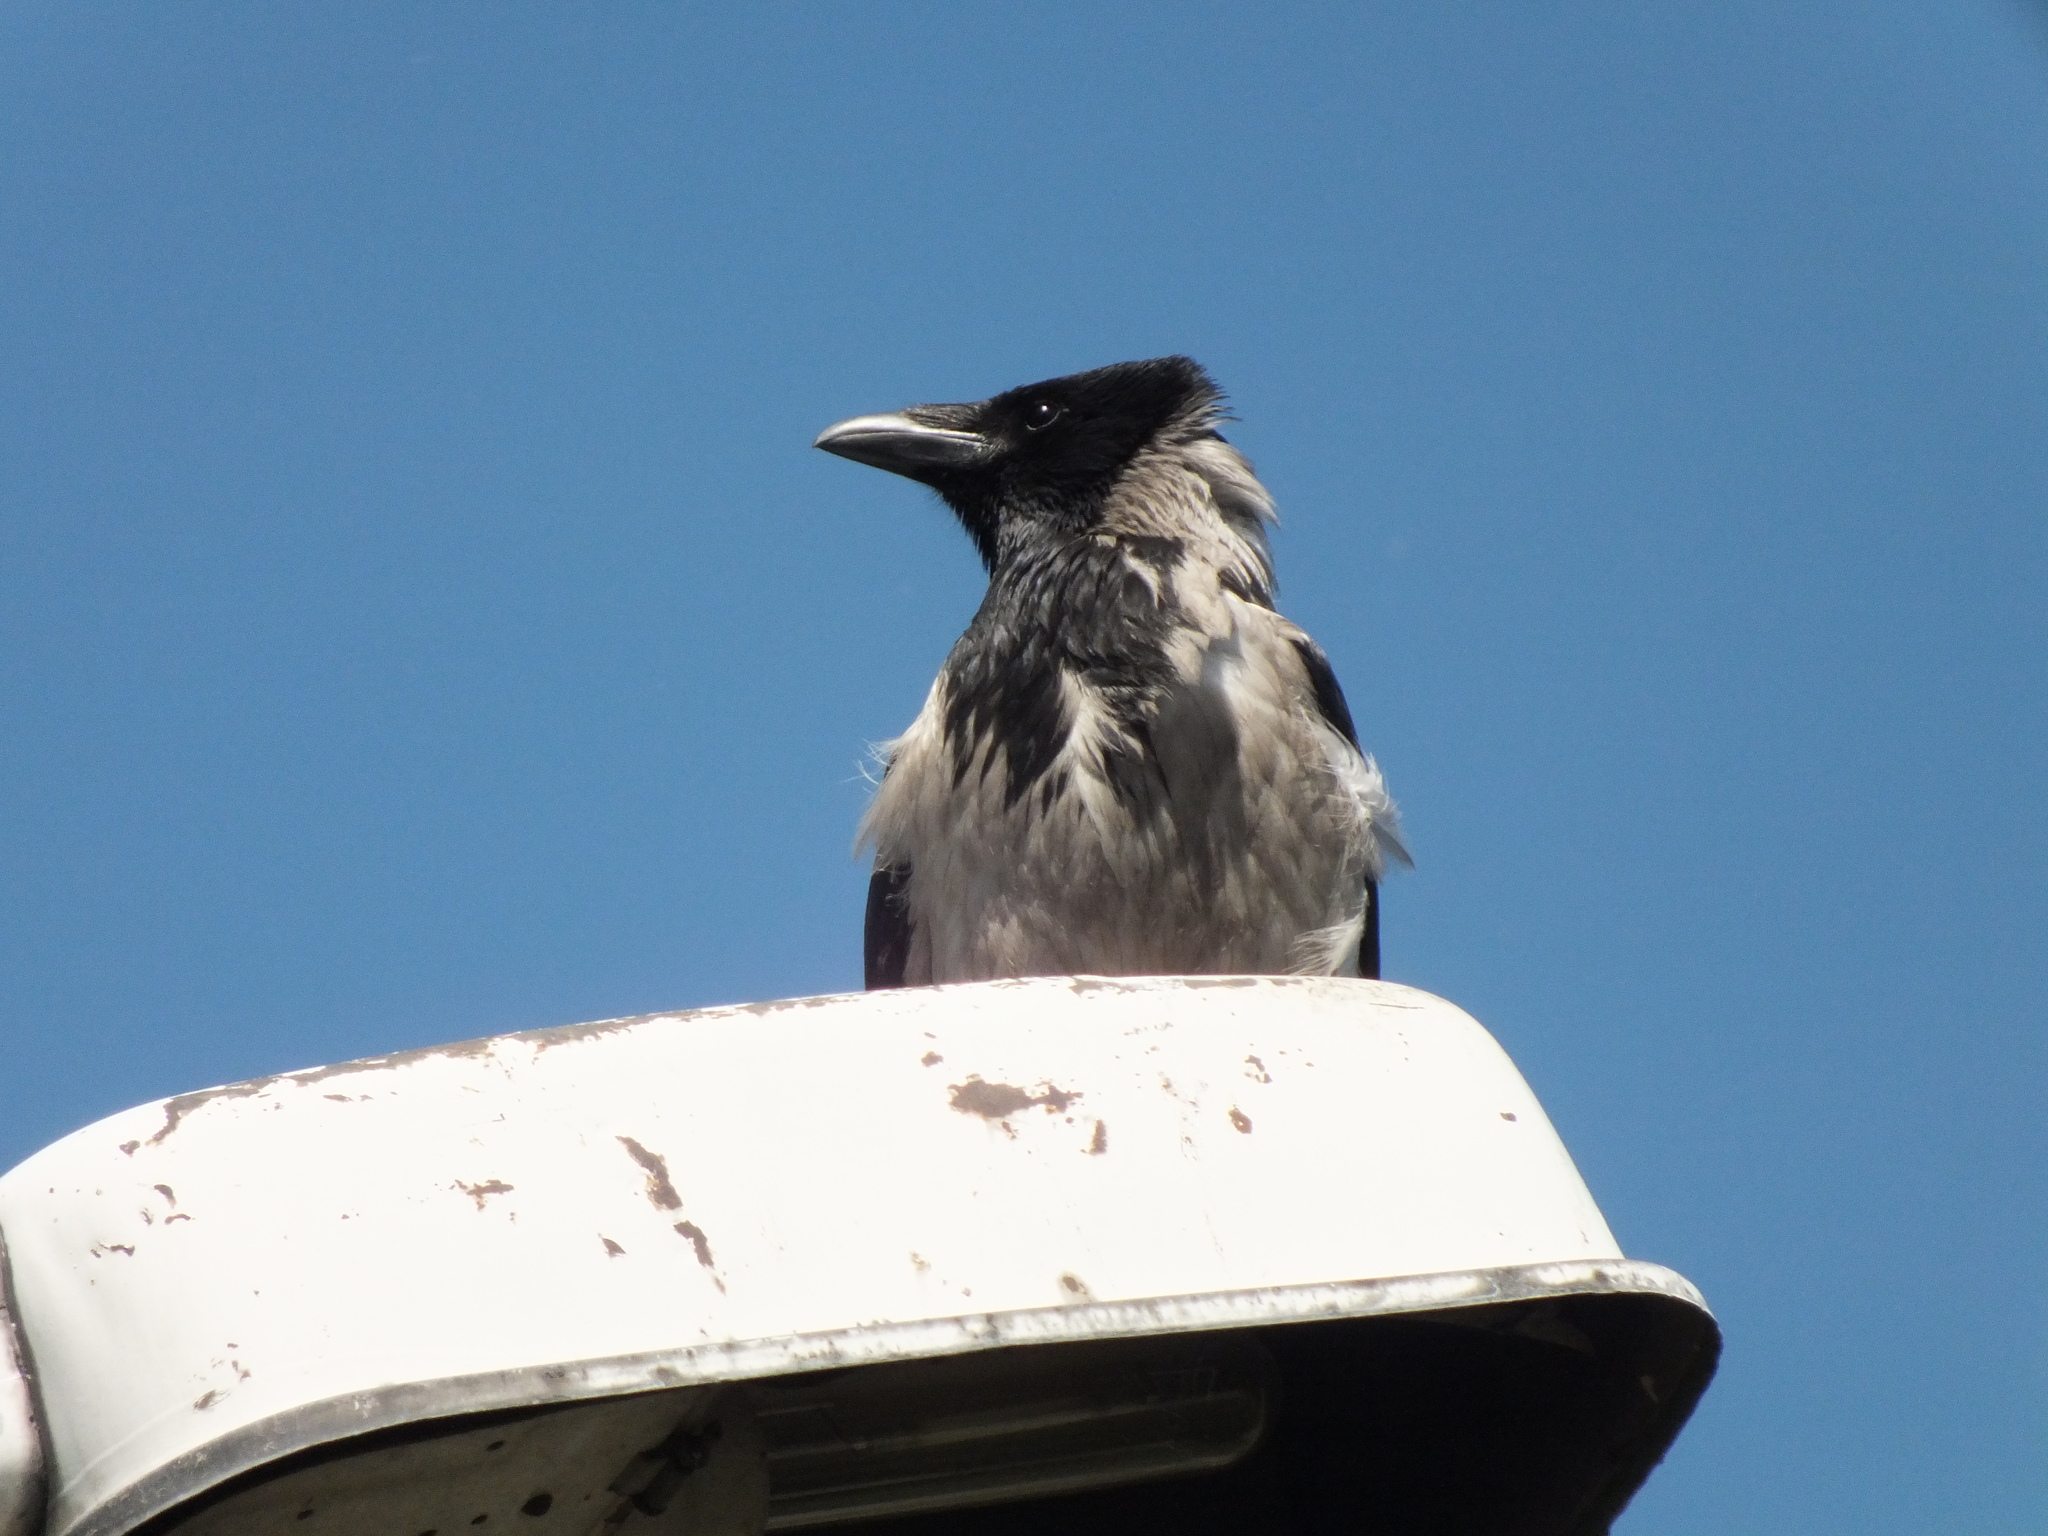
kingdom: Animalia
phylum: Chordata
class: Aves
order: Passeriformes
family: Corvidae
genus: Corvus
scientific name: Corvus cornix
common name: Hooded crow
